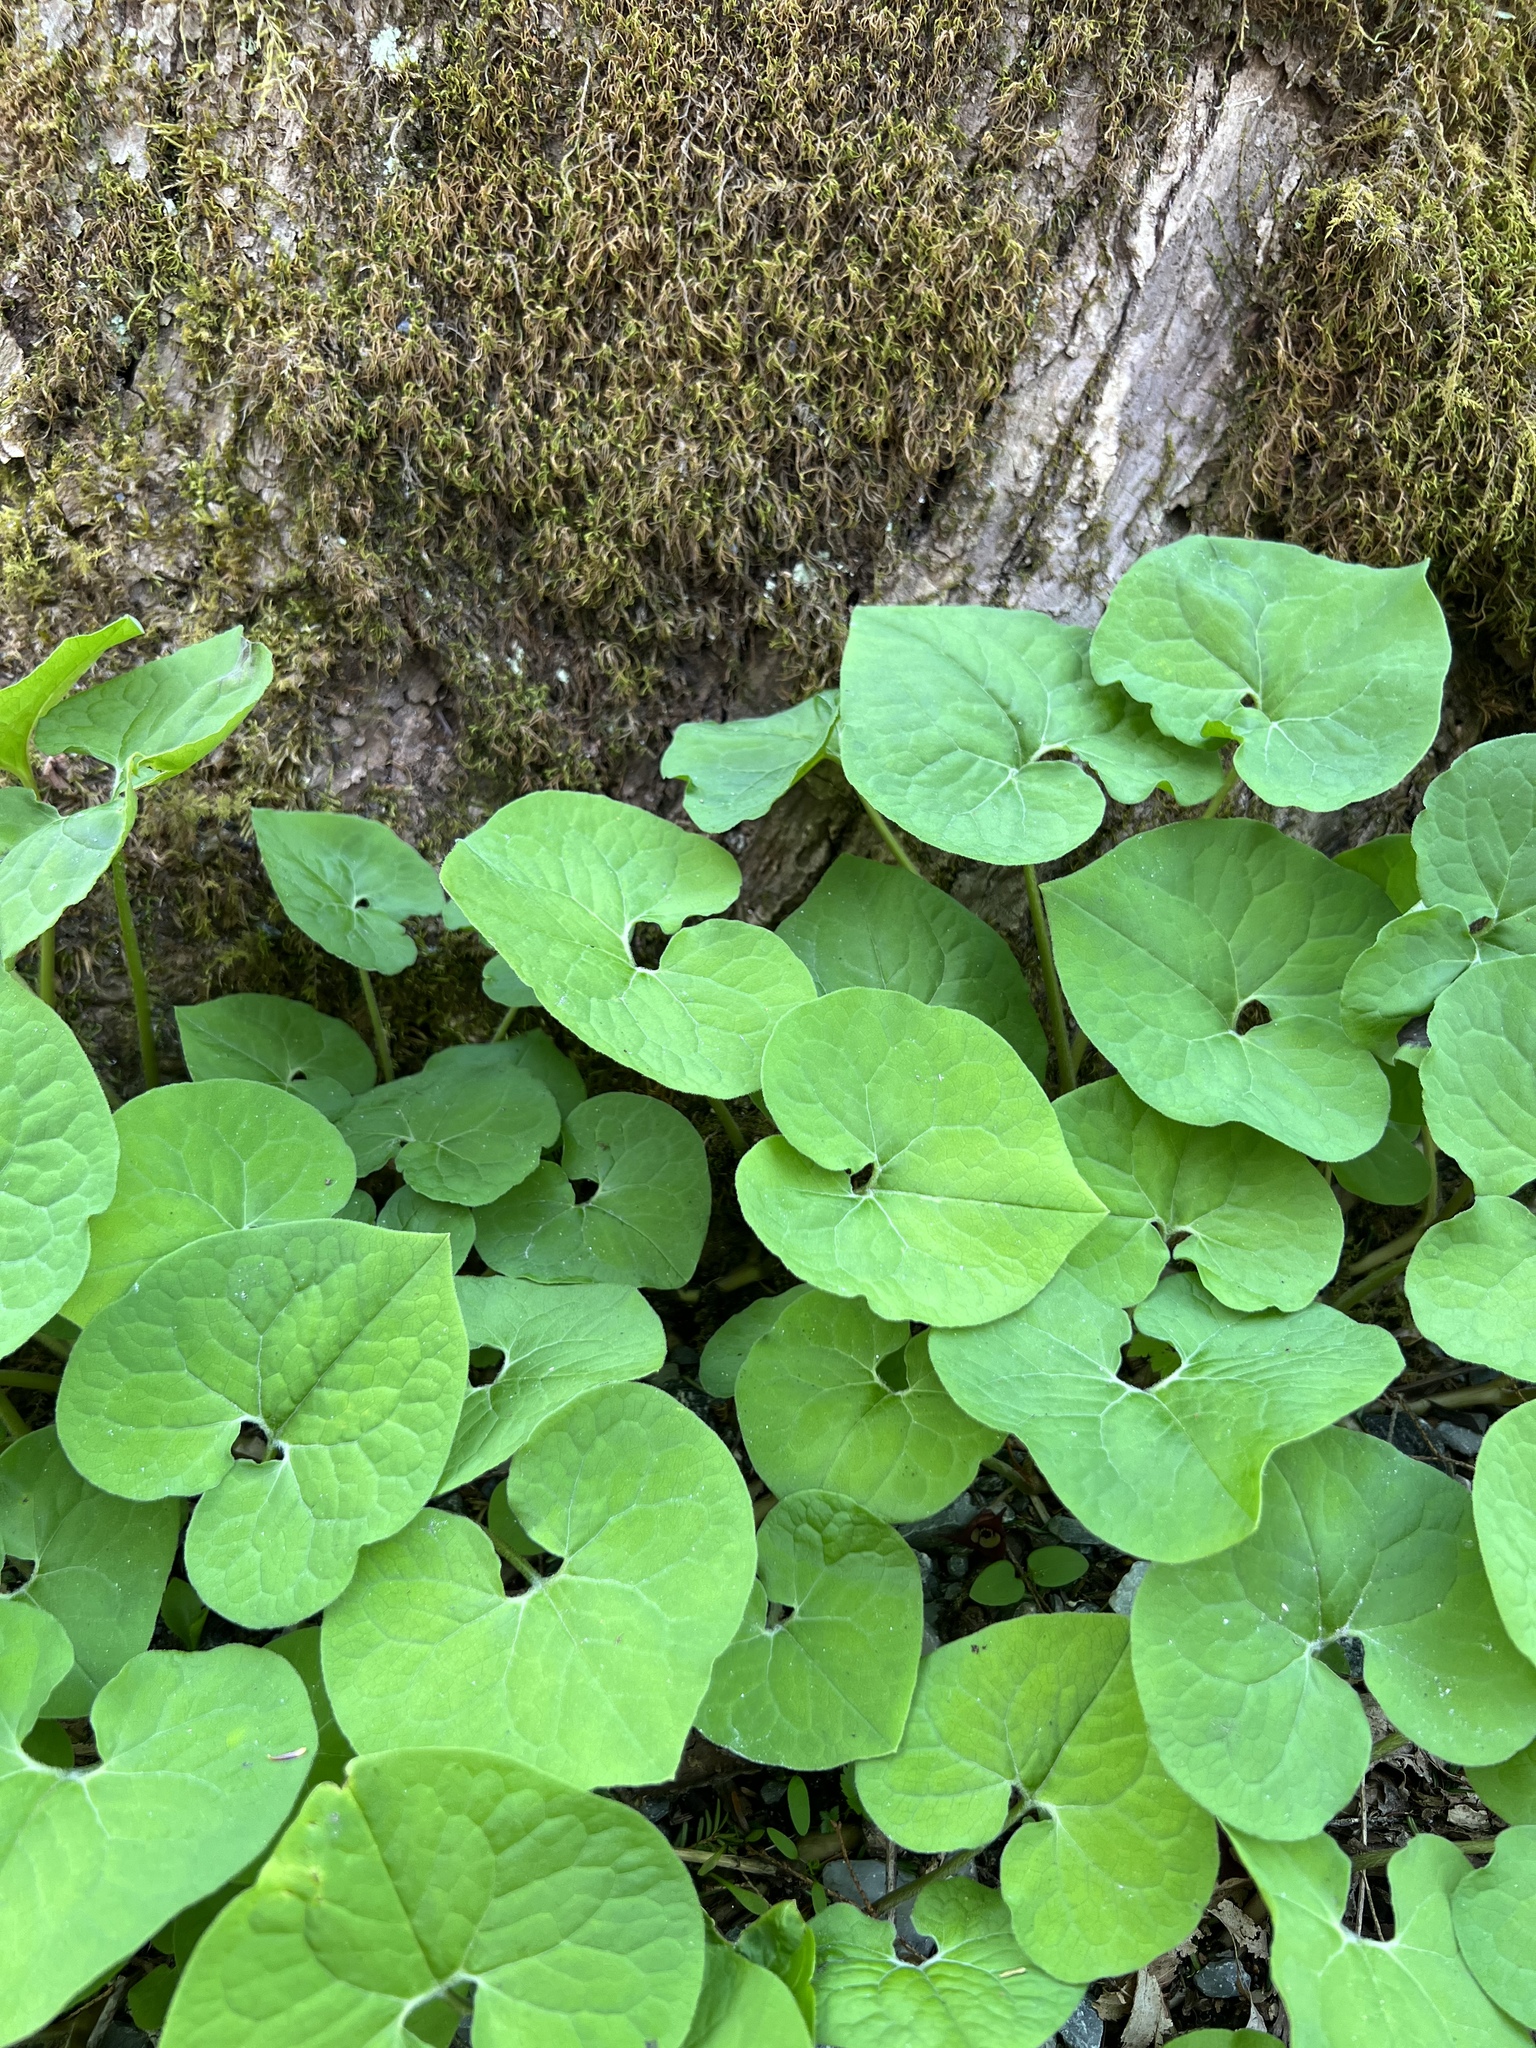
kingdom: Plantae
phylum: Tracheophyta
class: Magnoliopsida
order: Piperales
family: Aristolochiaceae
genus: Asarum
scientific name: Asarum canadense
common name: Wild ginger
